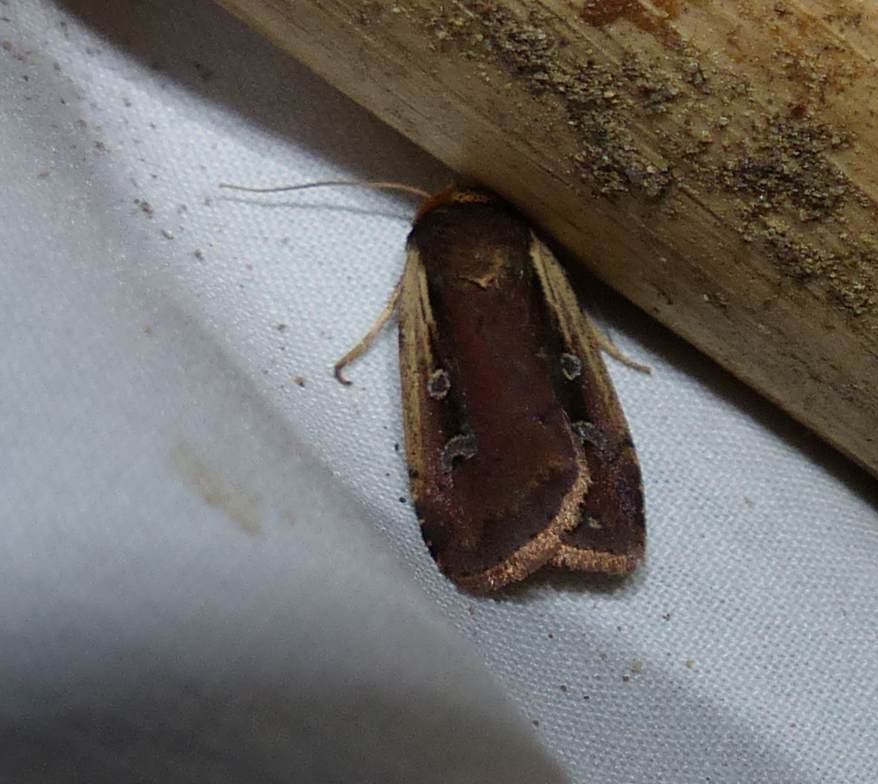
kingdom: Animalia
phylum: Arthropoda
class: Insecta
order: Lepidoptera
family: Noctuidae
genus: Ochropleura
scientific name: Ochropleura implecta
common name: Flame-shouldered dart
